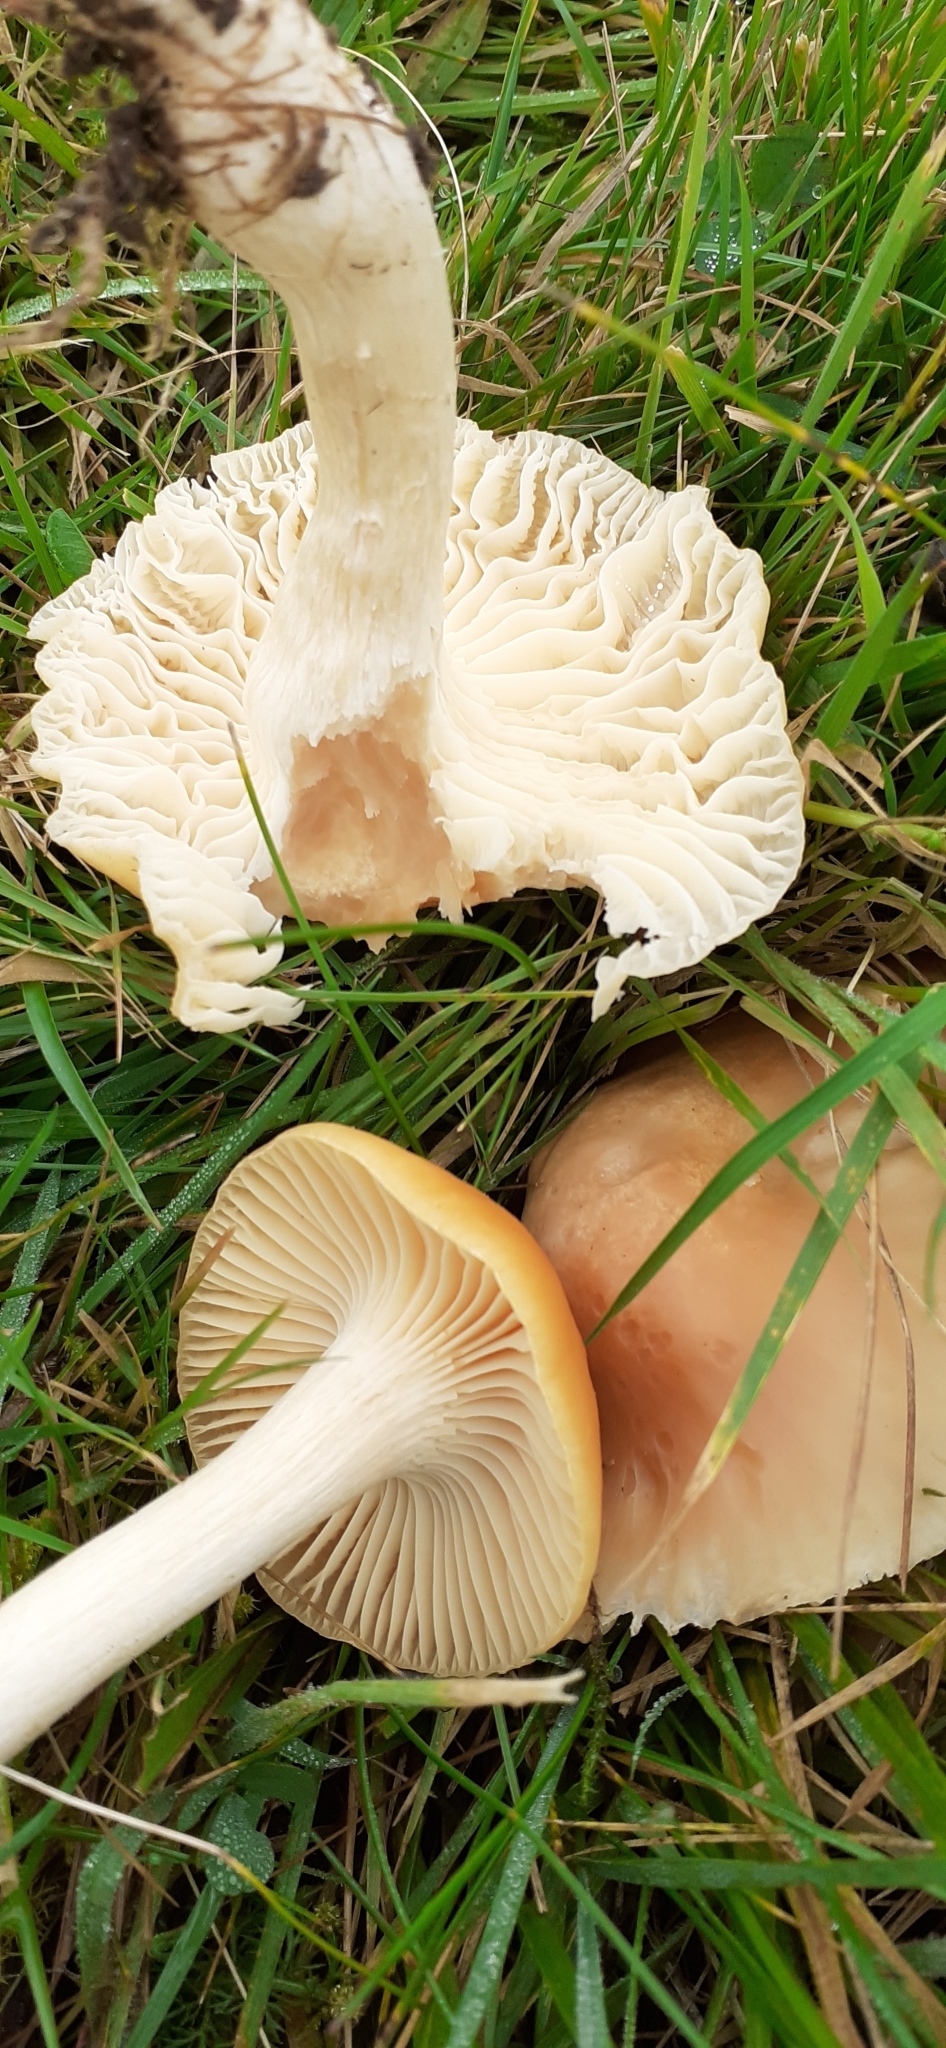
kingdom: Fungi
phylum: Basidiomycota
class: Agaricomycetes
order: Agaricales
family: Hygrophoraceae
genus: Cuphophyllus
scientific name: Cuphophyllus pratensis
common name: Meadow waxcap
